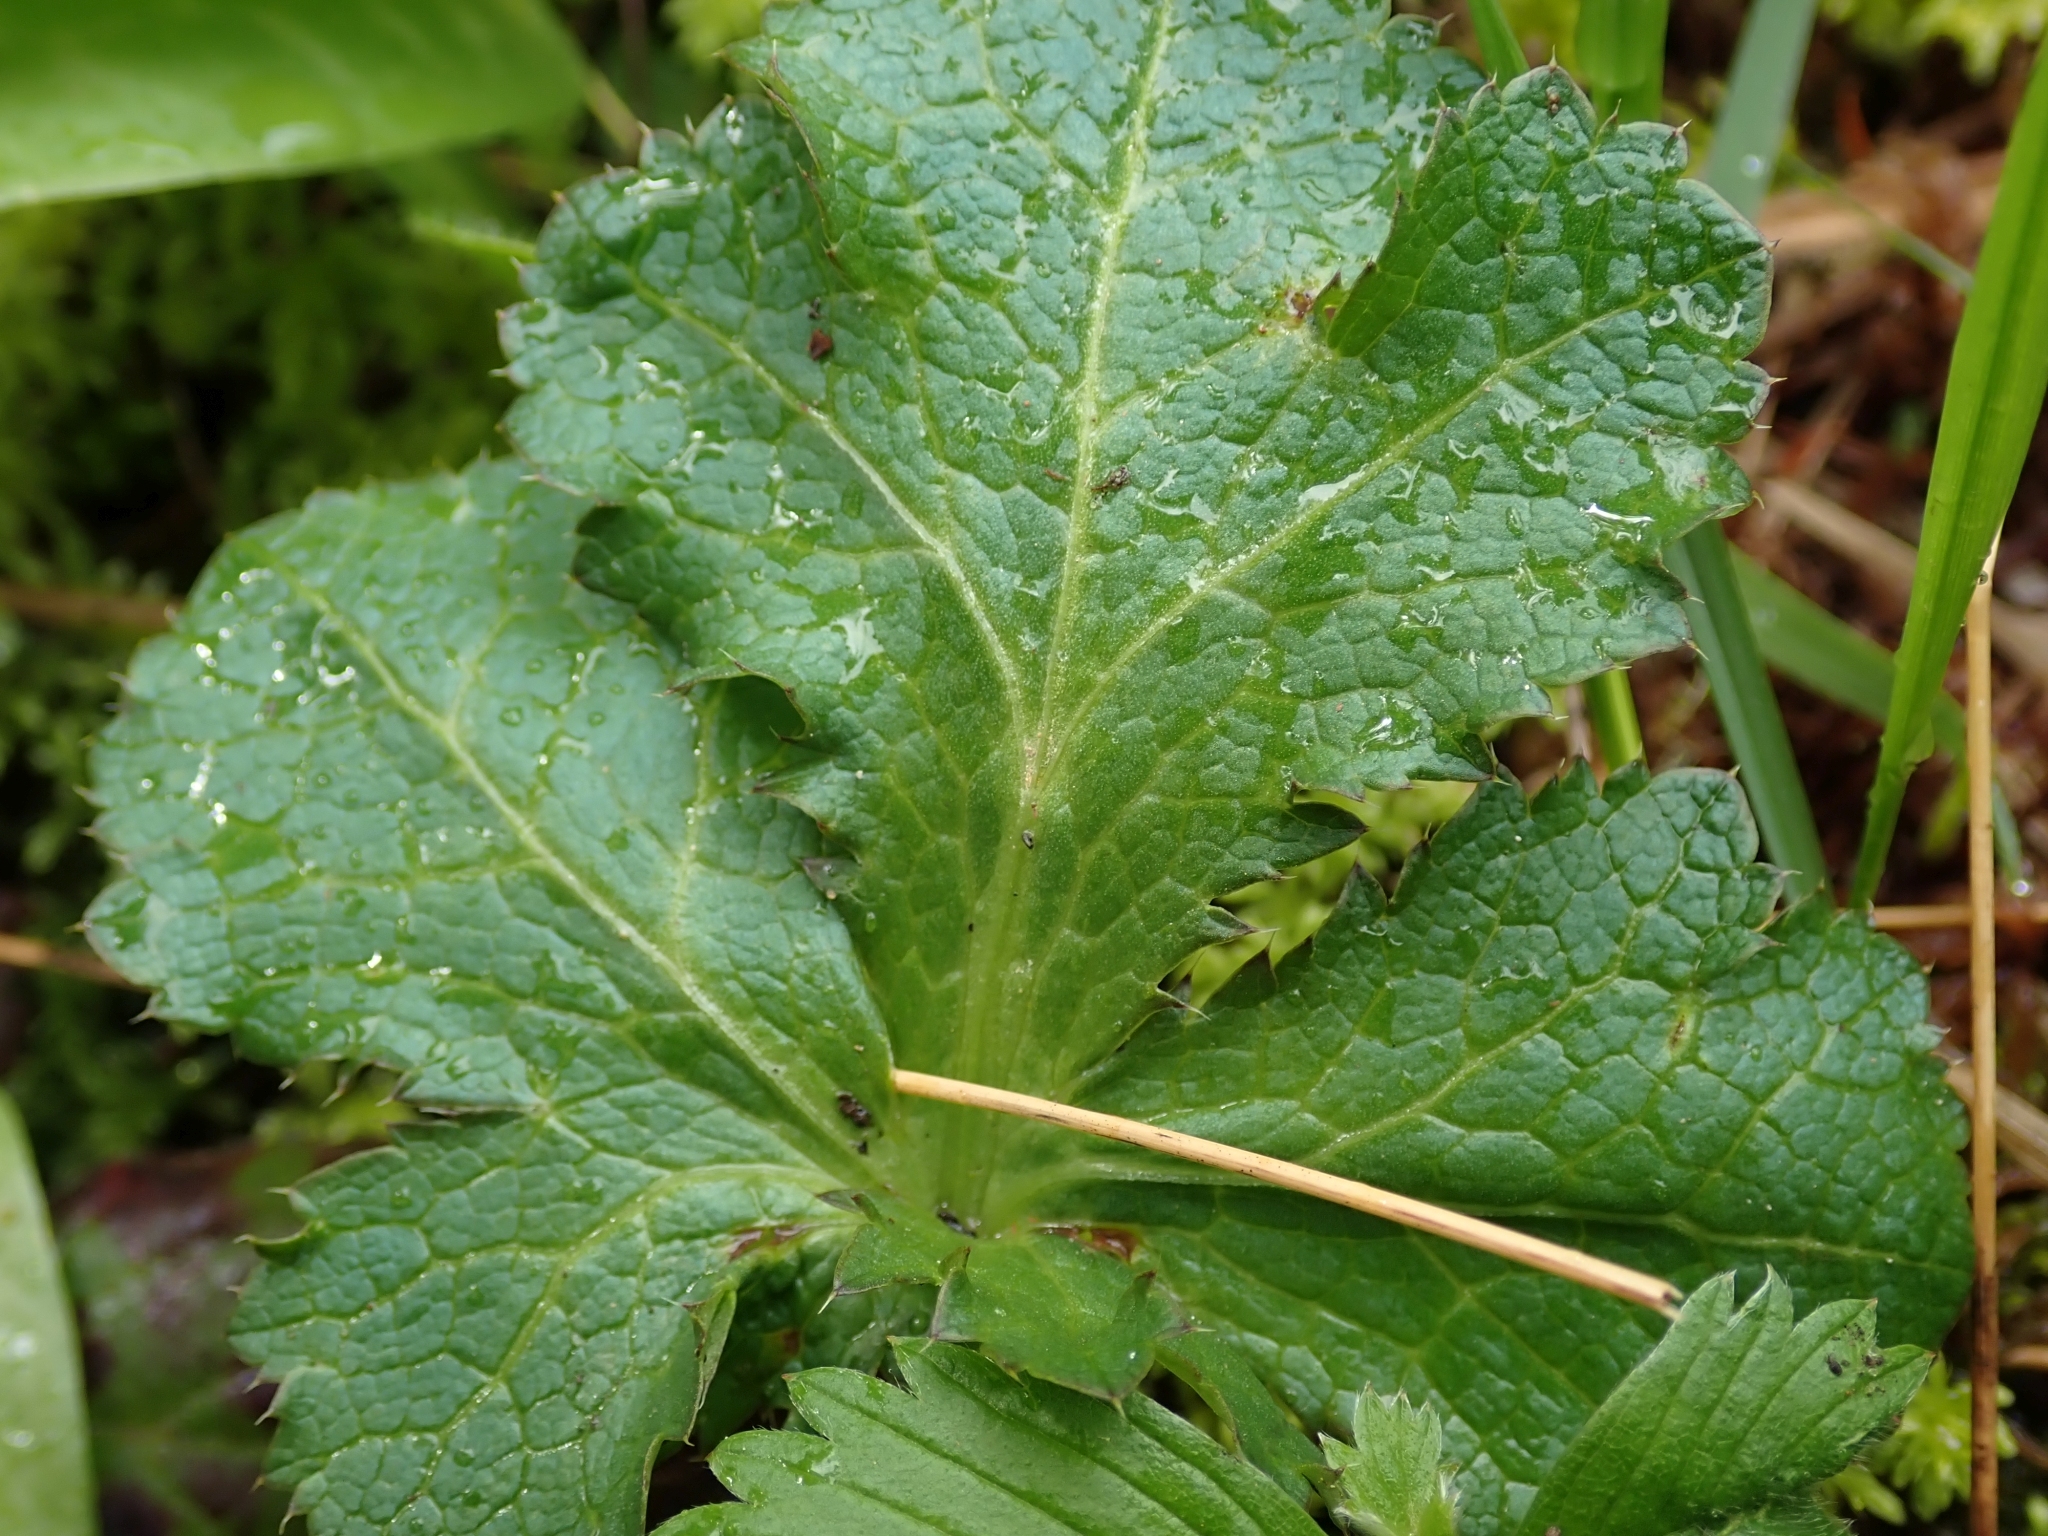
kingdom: Plantae
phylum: Tracheophyta
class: Magnoliopsida
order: Apiales
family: Apiaceae
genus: Sanicula
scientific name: Sanicula crassicaulis
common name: Western snakeroot
